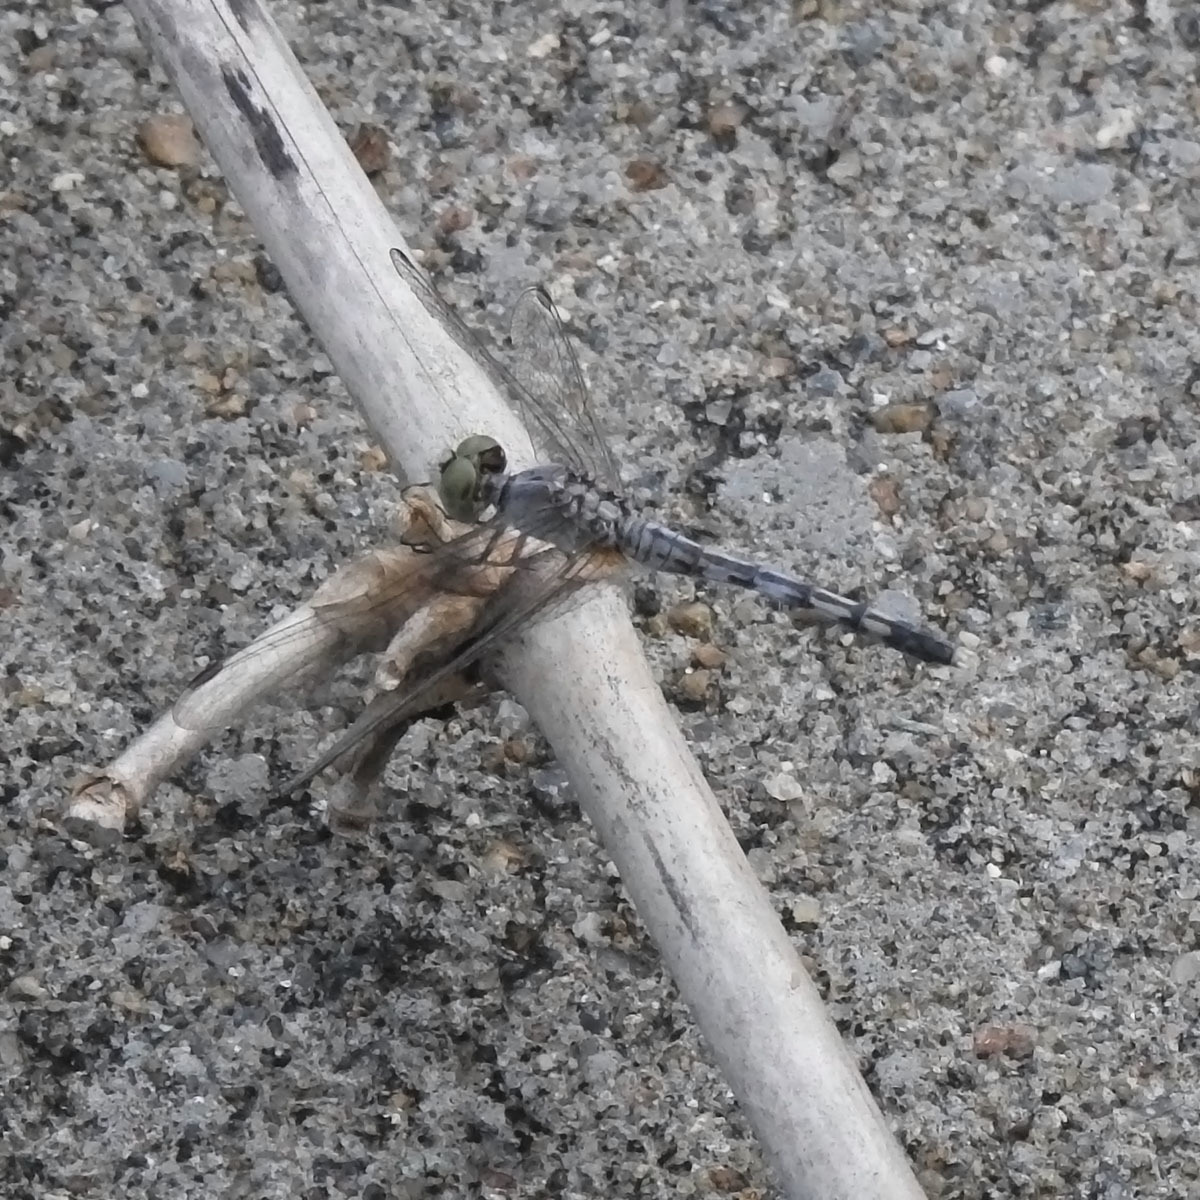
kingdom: Animalia
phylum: Arthropoda
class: Insecta
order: Odonata
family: Libellulidae
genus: Diplacodes
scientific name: Diplacodes trivialis
